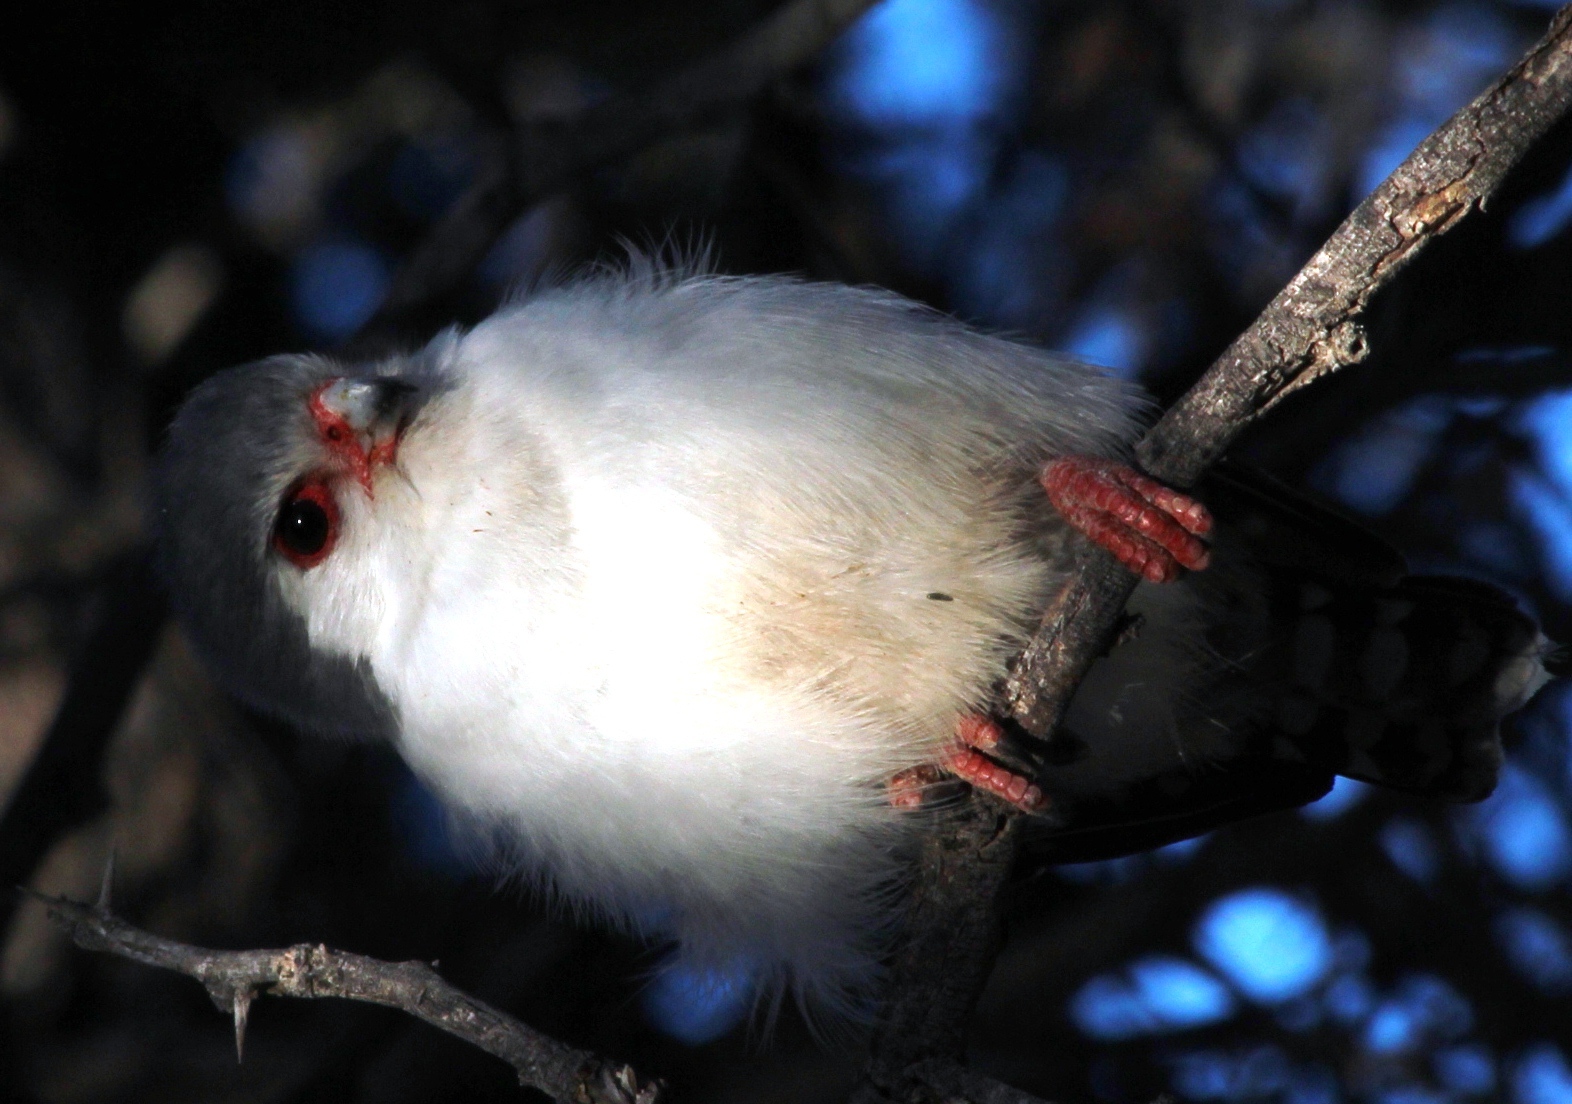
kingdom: Animalia
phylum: Chordata
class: Aves
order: Falconiformes
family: Falconidae
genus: Polihierax
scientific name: Polihierax semitorquatus
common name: Pygmy falcon
